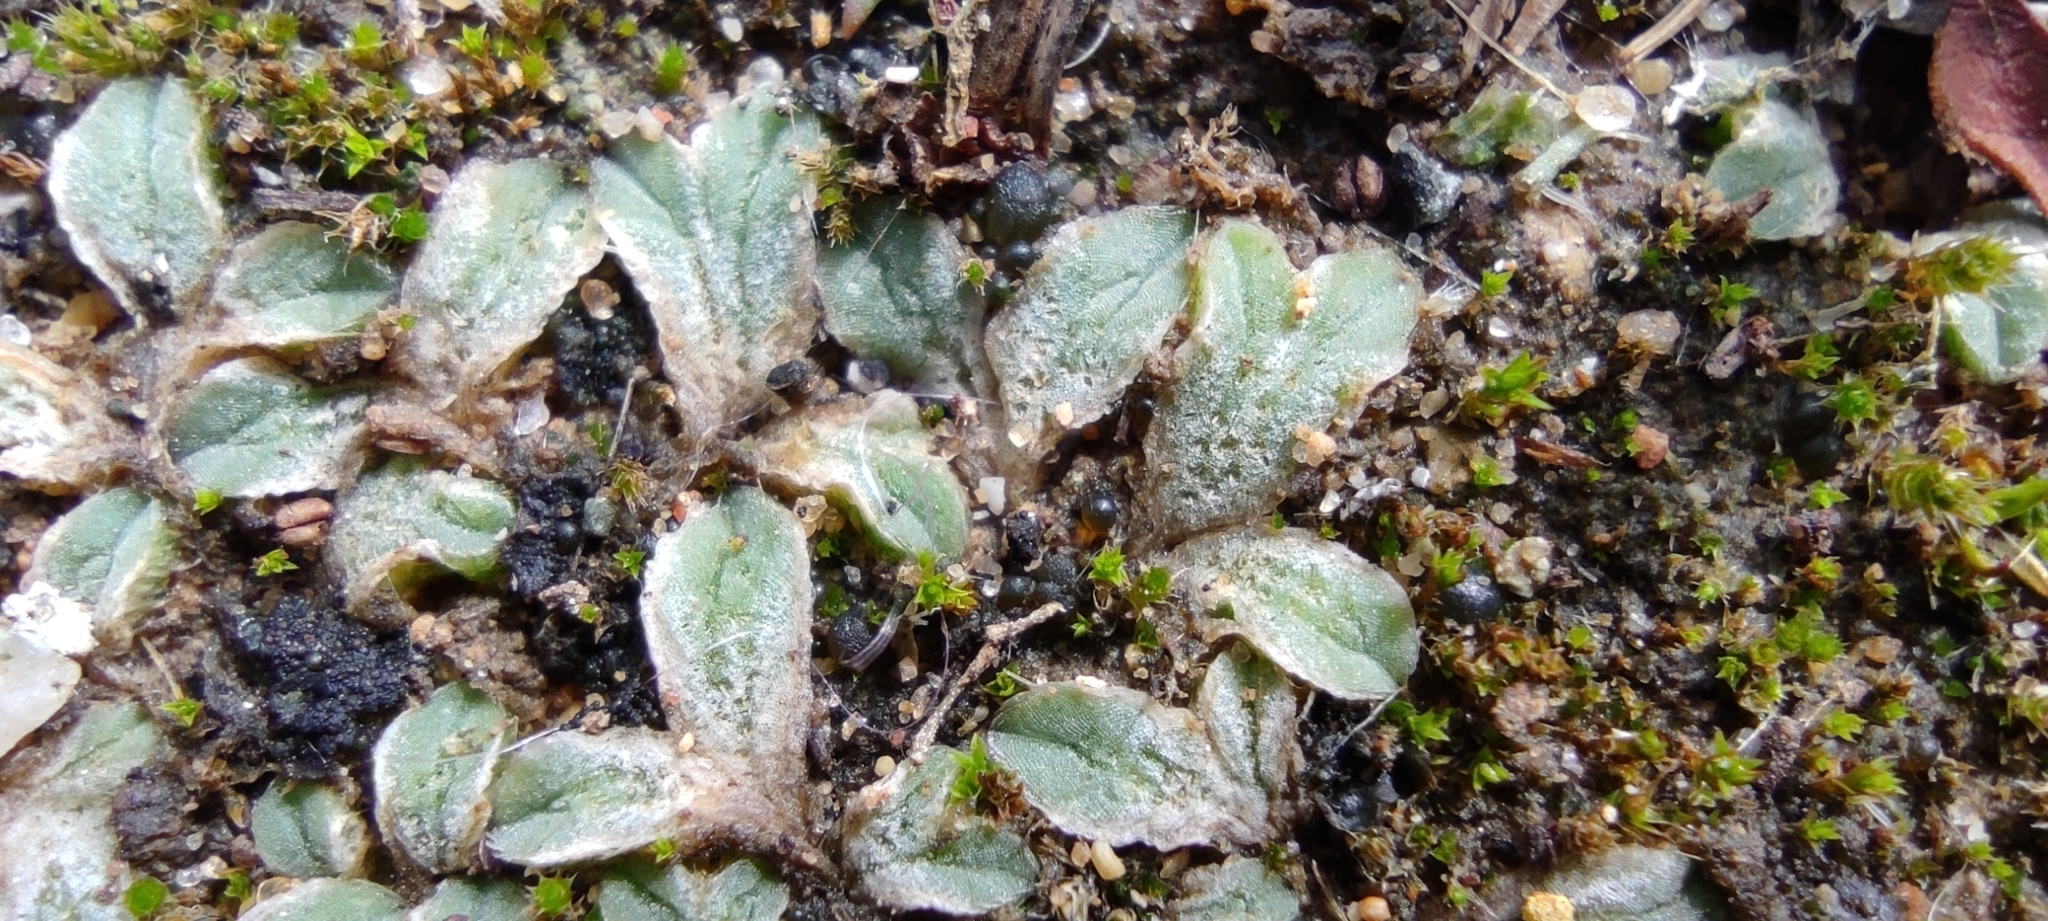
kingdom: Plantae
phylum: Marchantiophyta
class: Marchantiopsida
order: Marchantiales
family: Ricciaceae
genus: Riccia
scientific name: Riccia lamellosa
